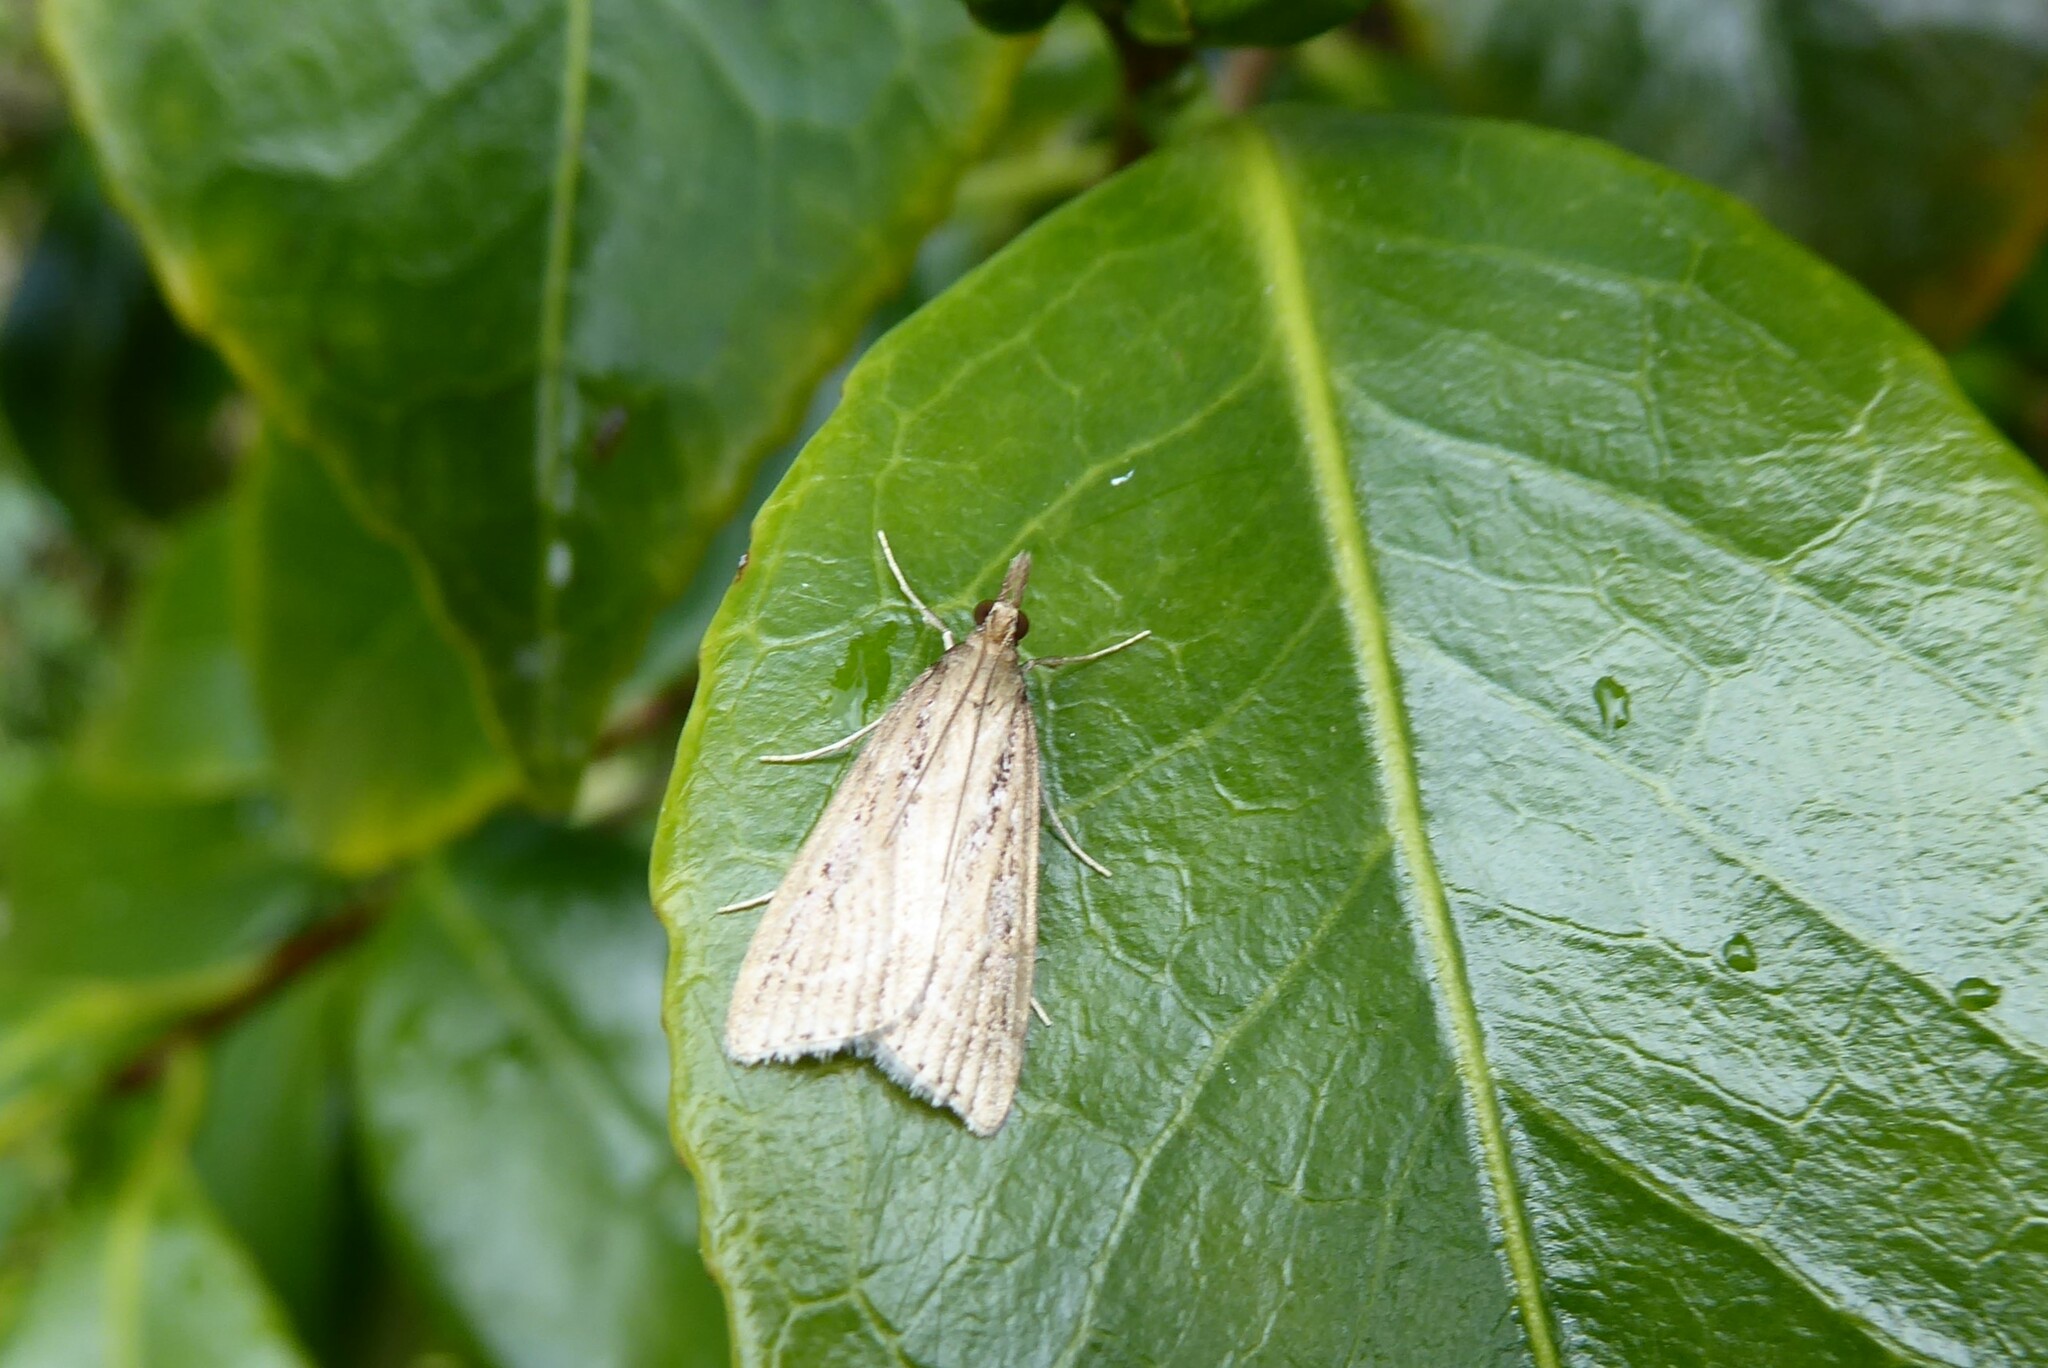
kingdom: Animalia
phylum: Arthropoda
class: Insecta
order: Lepidoptera
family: Crambidae
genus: Eudonia
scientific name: Eudonia octophora
